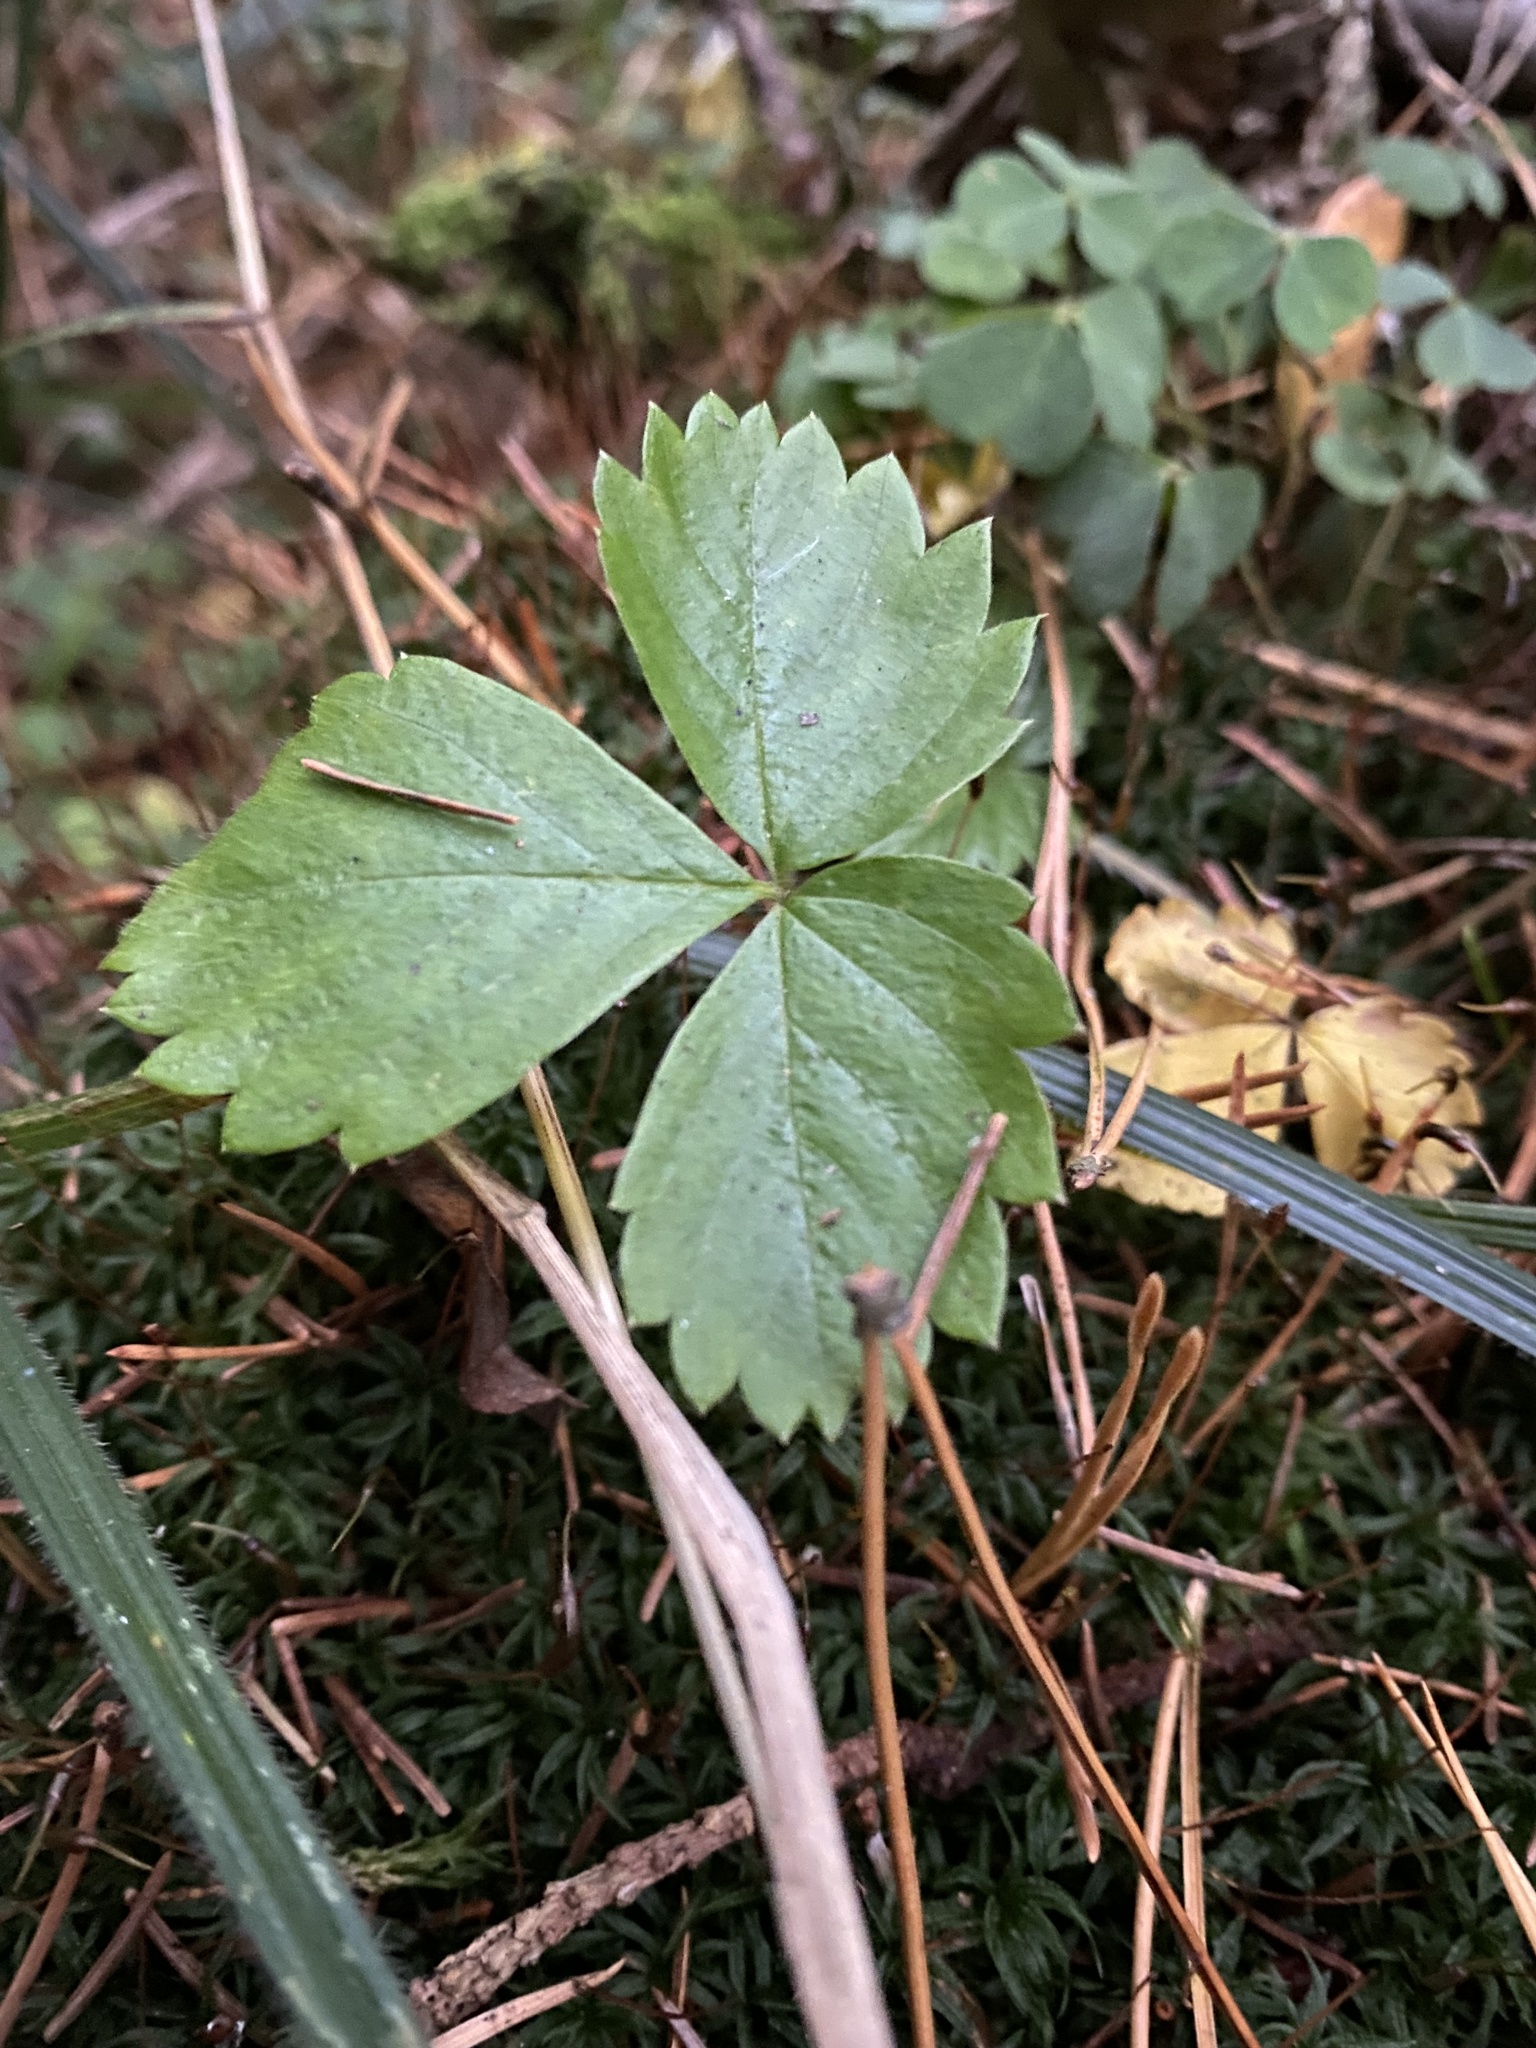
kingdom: Plantae
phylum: Tracheophyta
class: Magnoliopsida
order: Rosales
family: Rosaceae
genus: Fragaria
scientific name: Fragaria vesca
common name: Wild strawberry
